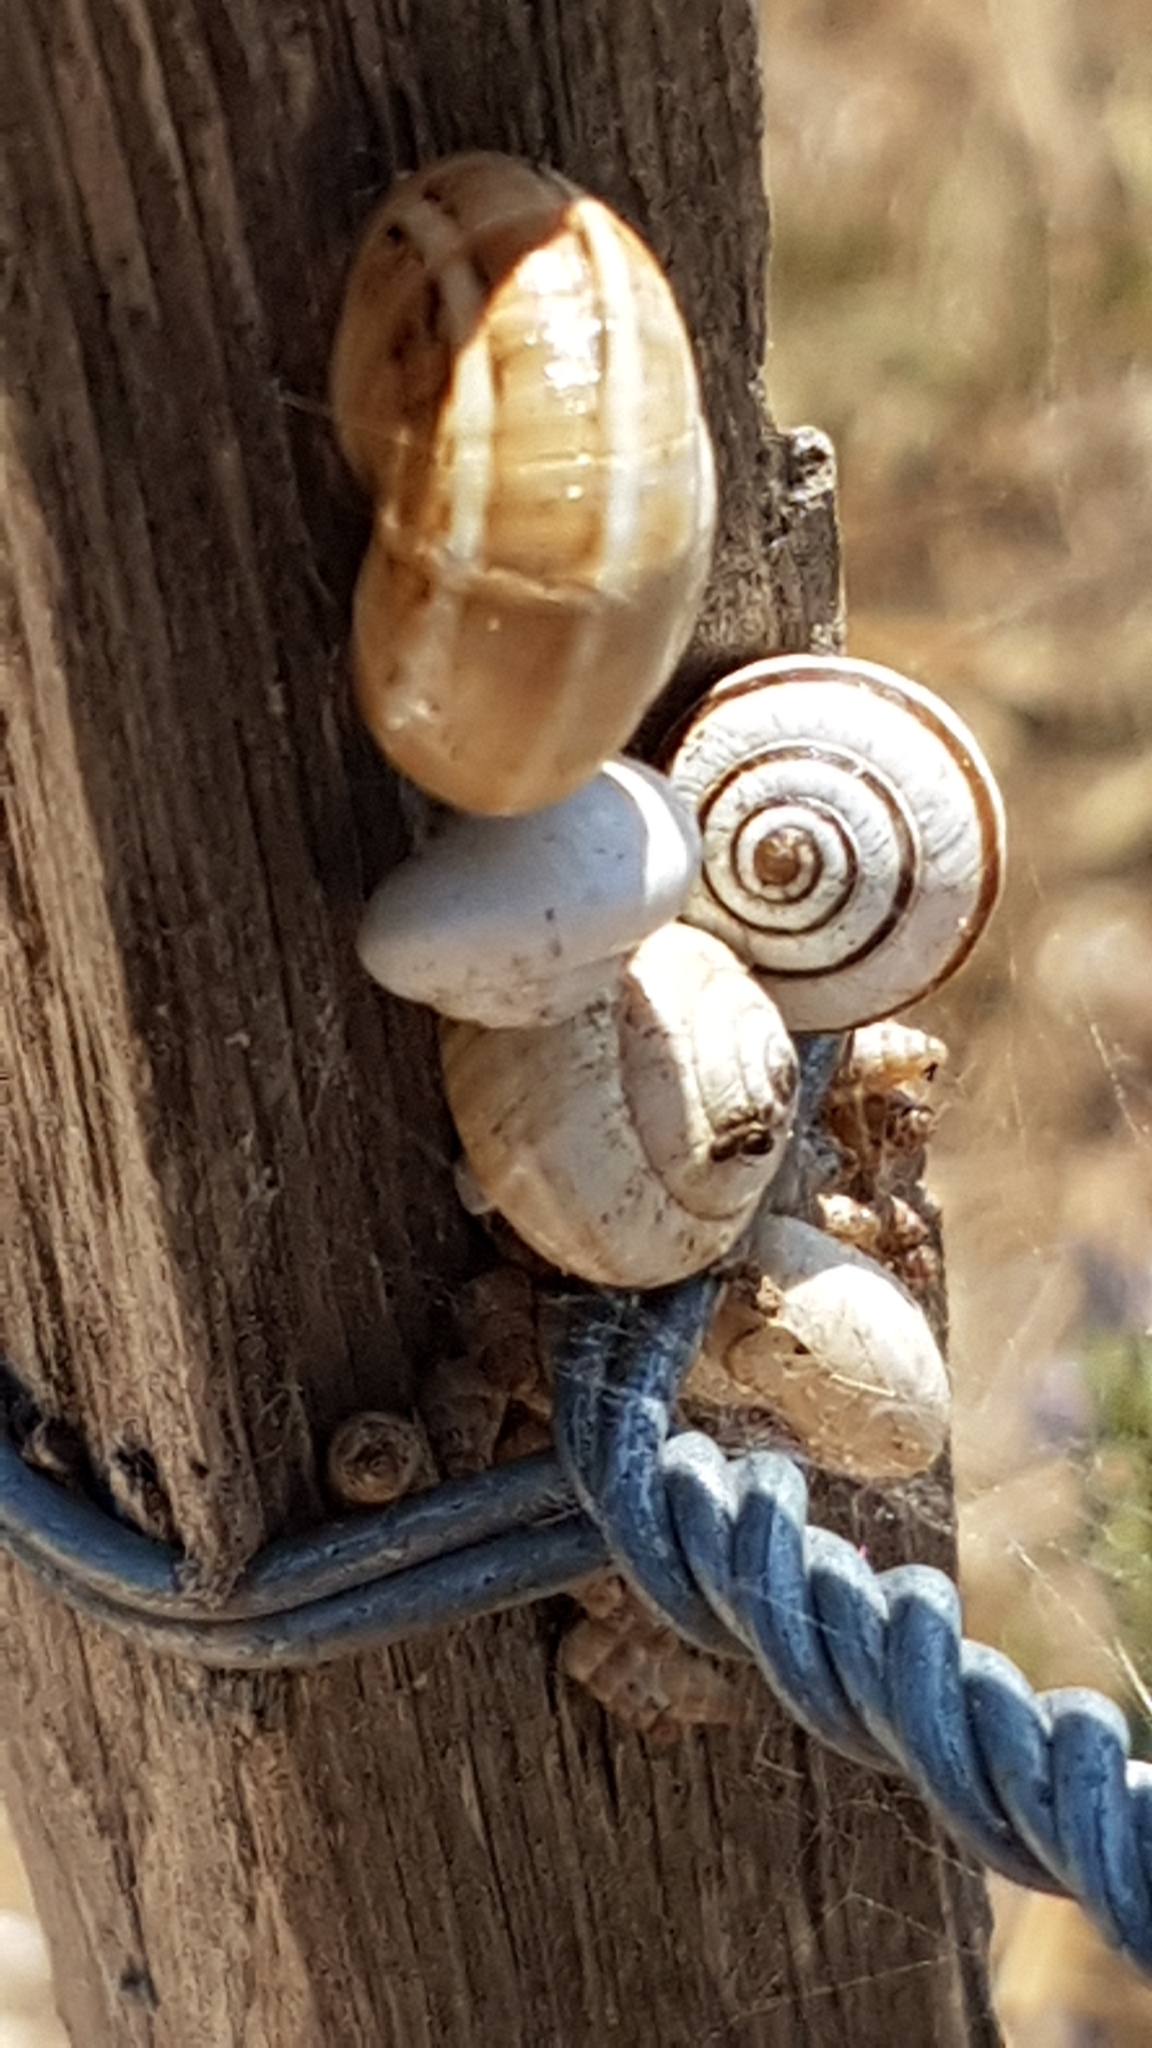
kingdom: Animalia
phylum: Mollusca
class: Gastropoda
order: Stylommatophora
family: Helicidae
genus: Theba
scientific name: Theba pisana
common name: White snail
